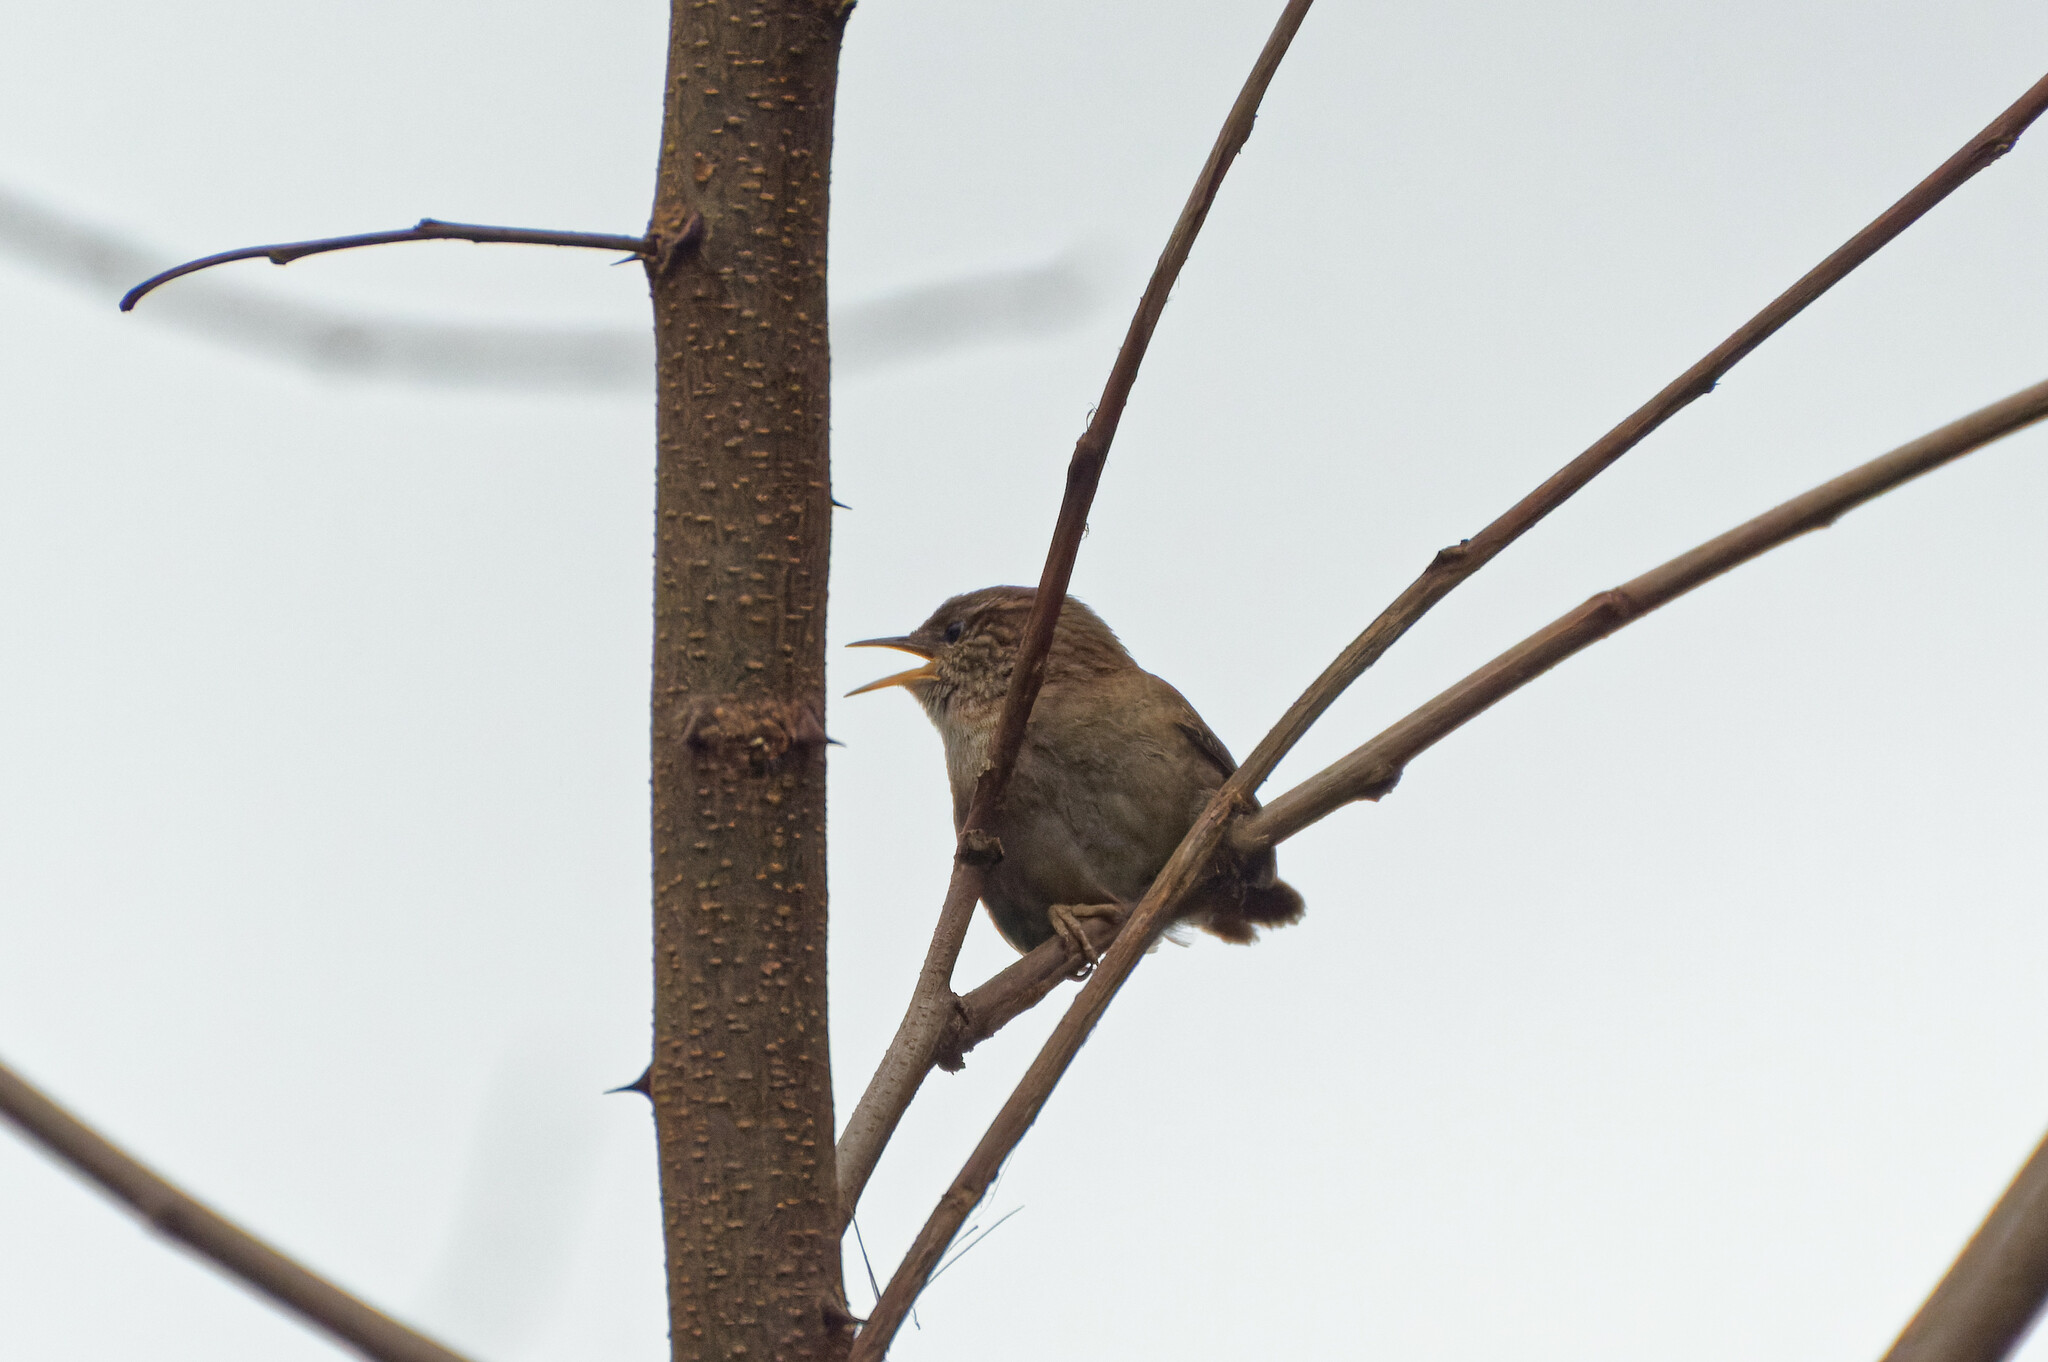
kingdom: Animalia
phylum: Chordata
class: Aves
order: Passeriformes
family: Troglodytidae
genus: Troglodytes
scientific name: Troglodytes troglodytes
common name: Eurasian wren
